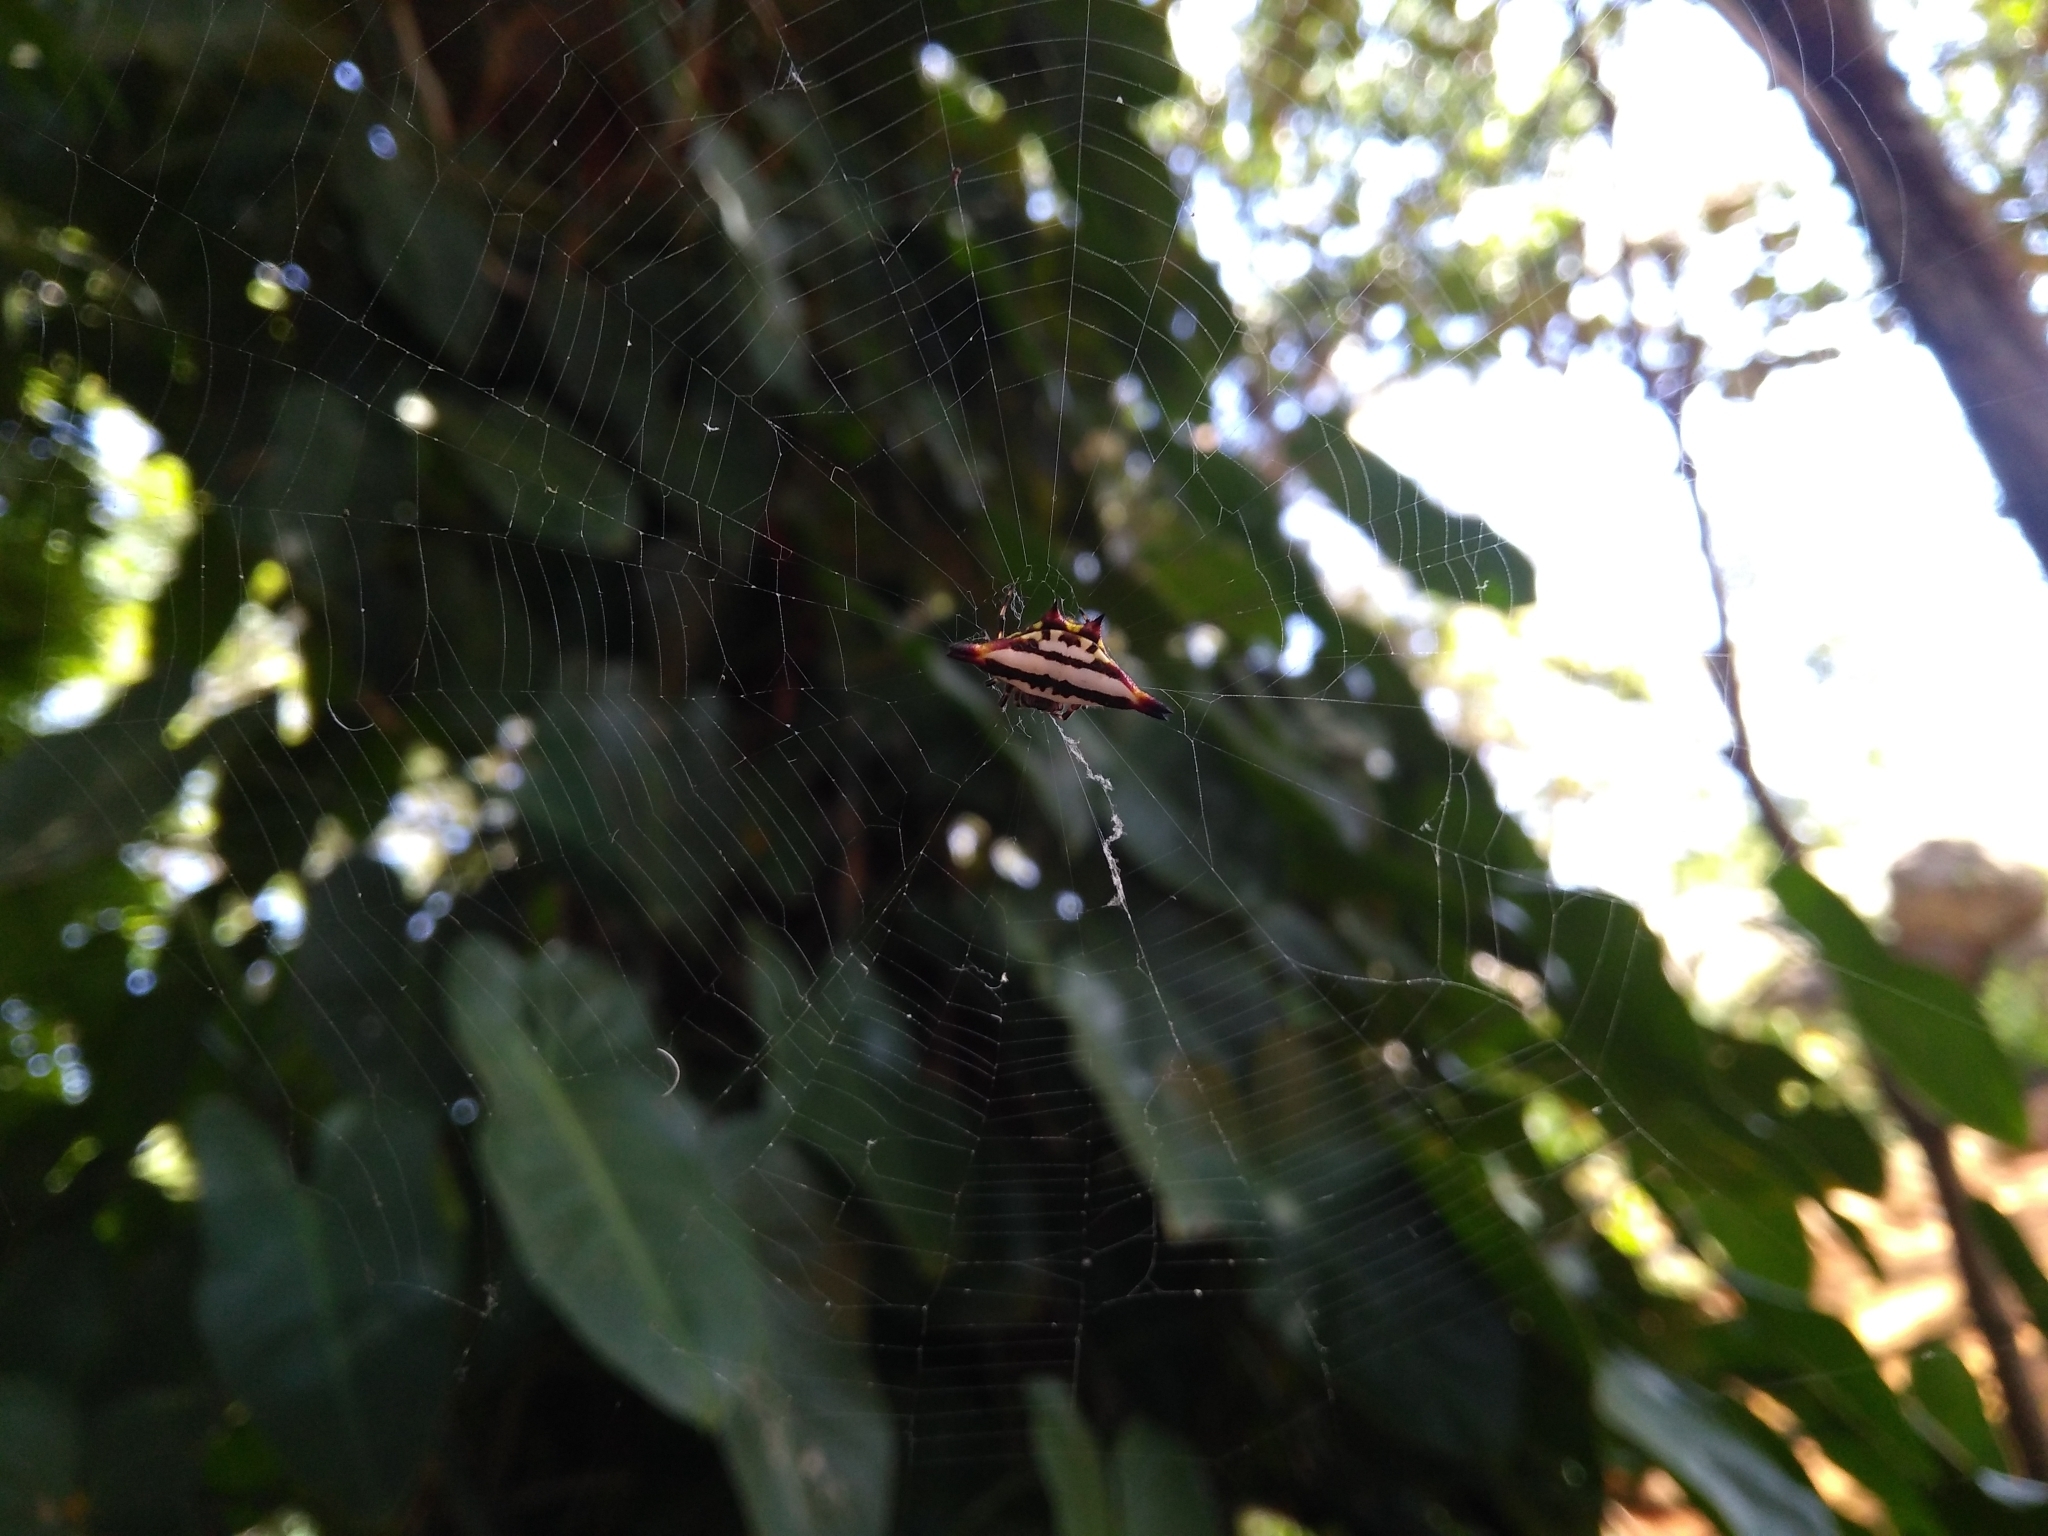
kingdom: Animalia
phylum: Arthropoda
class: Arachnida
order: Araneae
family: Araneidae
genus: Gasteracantha
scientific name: Gasteracantha geminata
